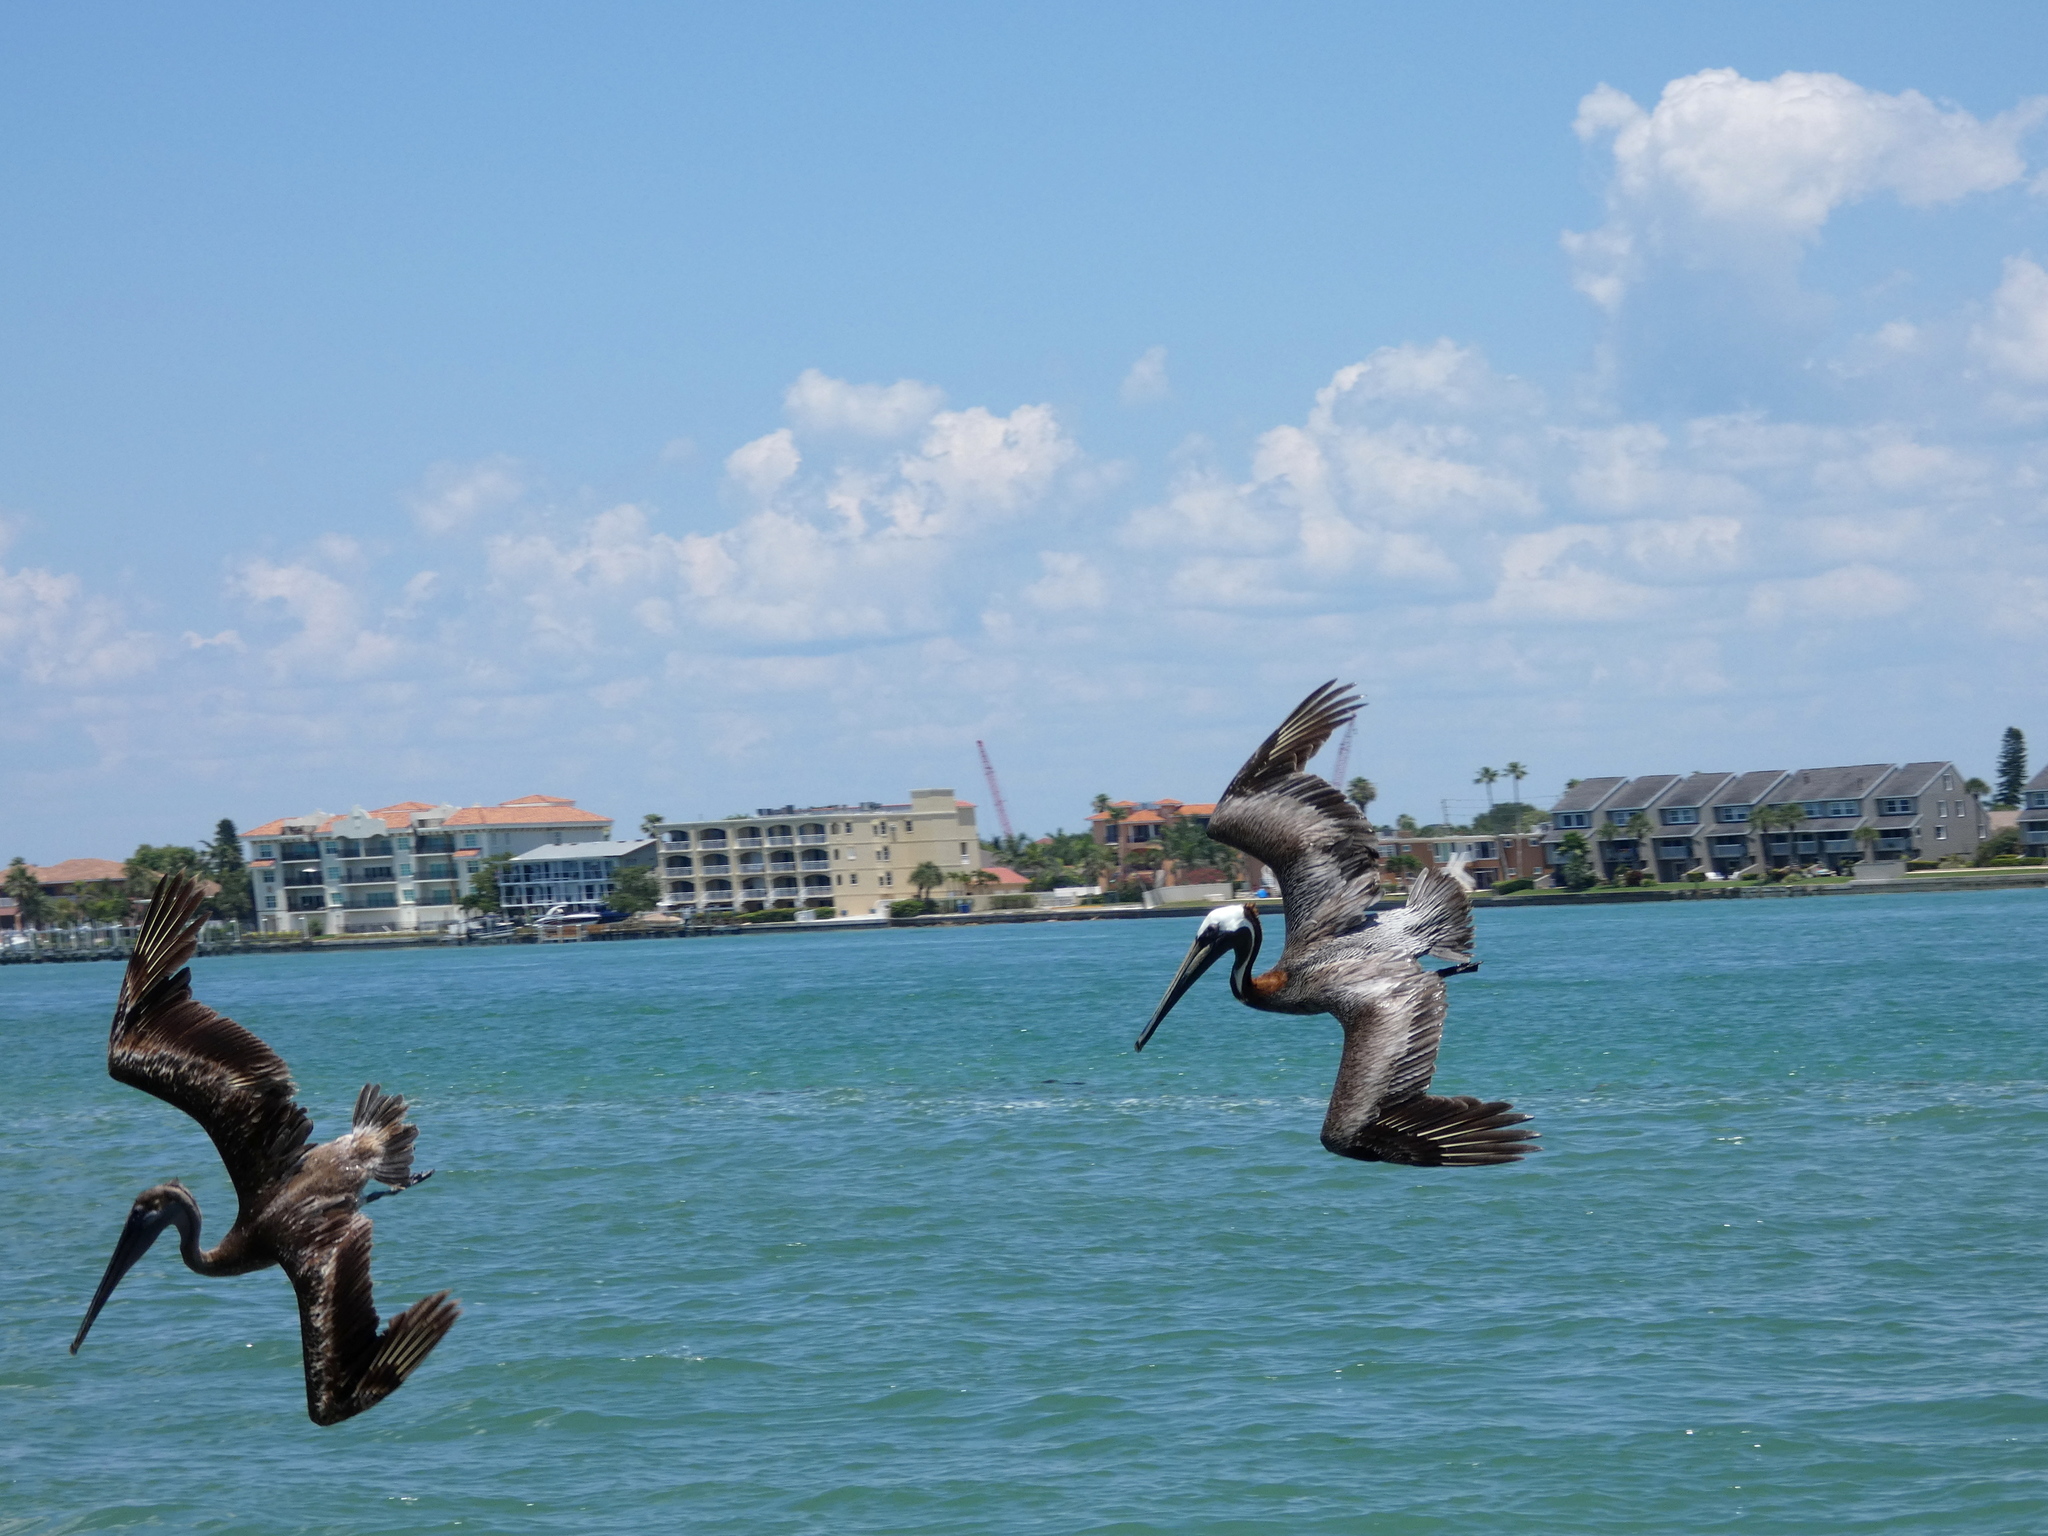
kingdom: Animalia
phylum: Chordata
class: Aves
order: Pelecaniformes
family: Pelecanidae
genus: Pelecanus
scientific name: Pelecanus occidentalis
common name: Brown pelican
